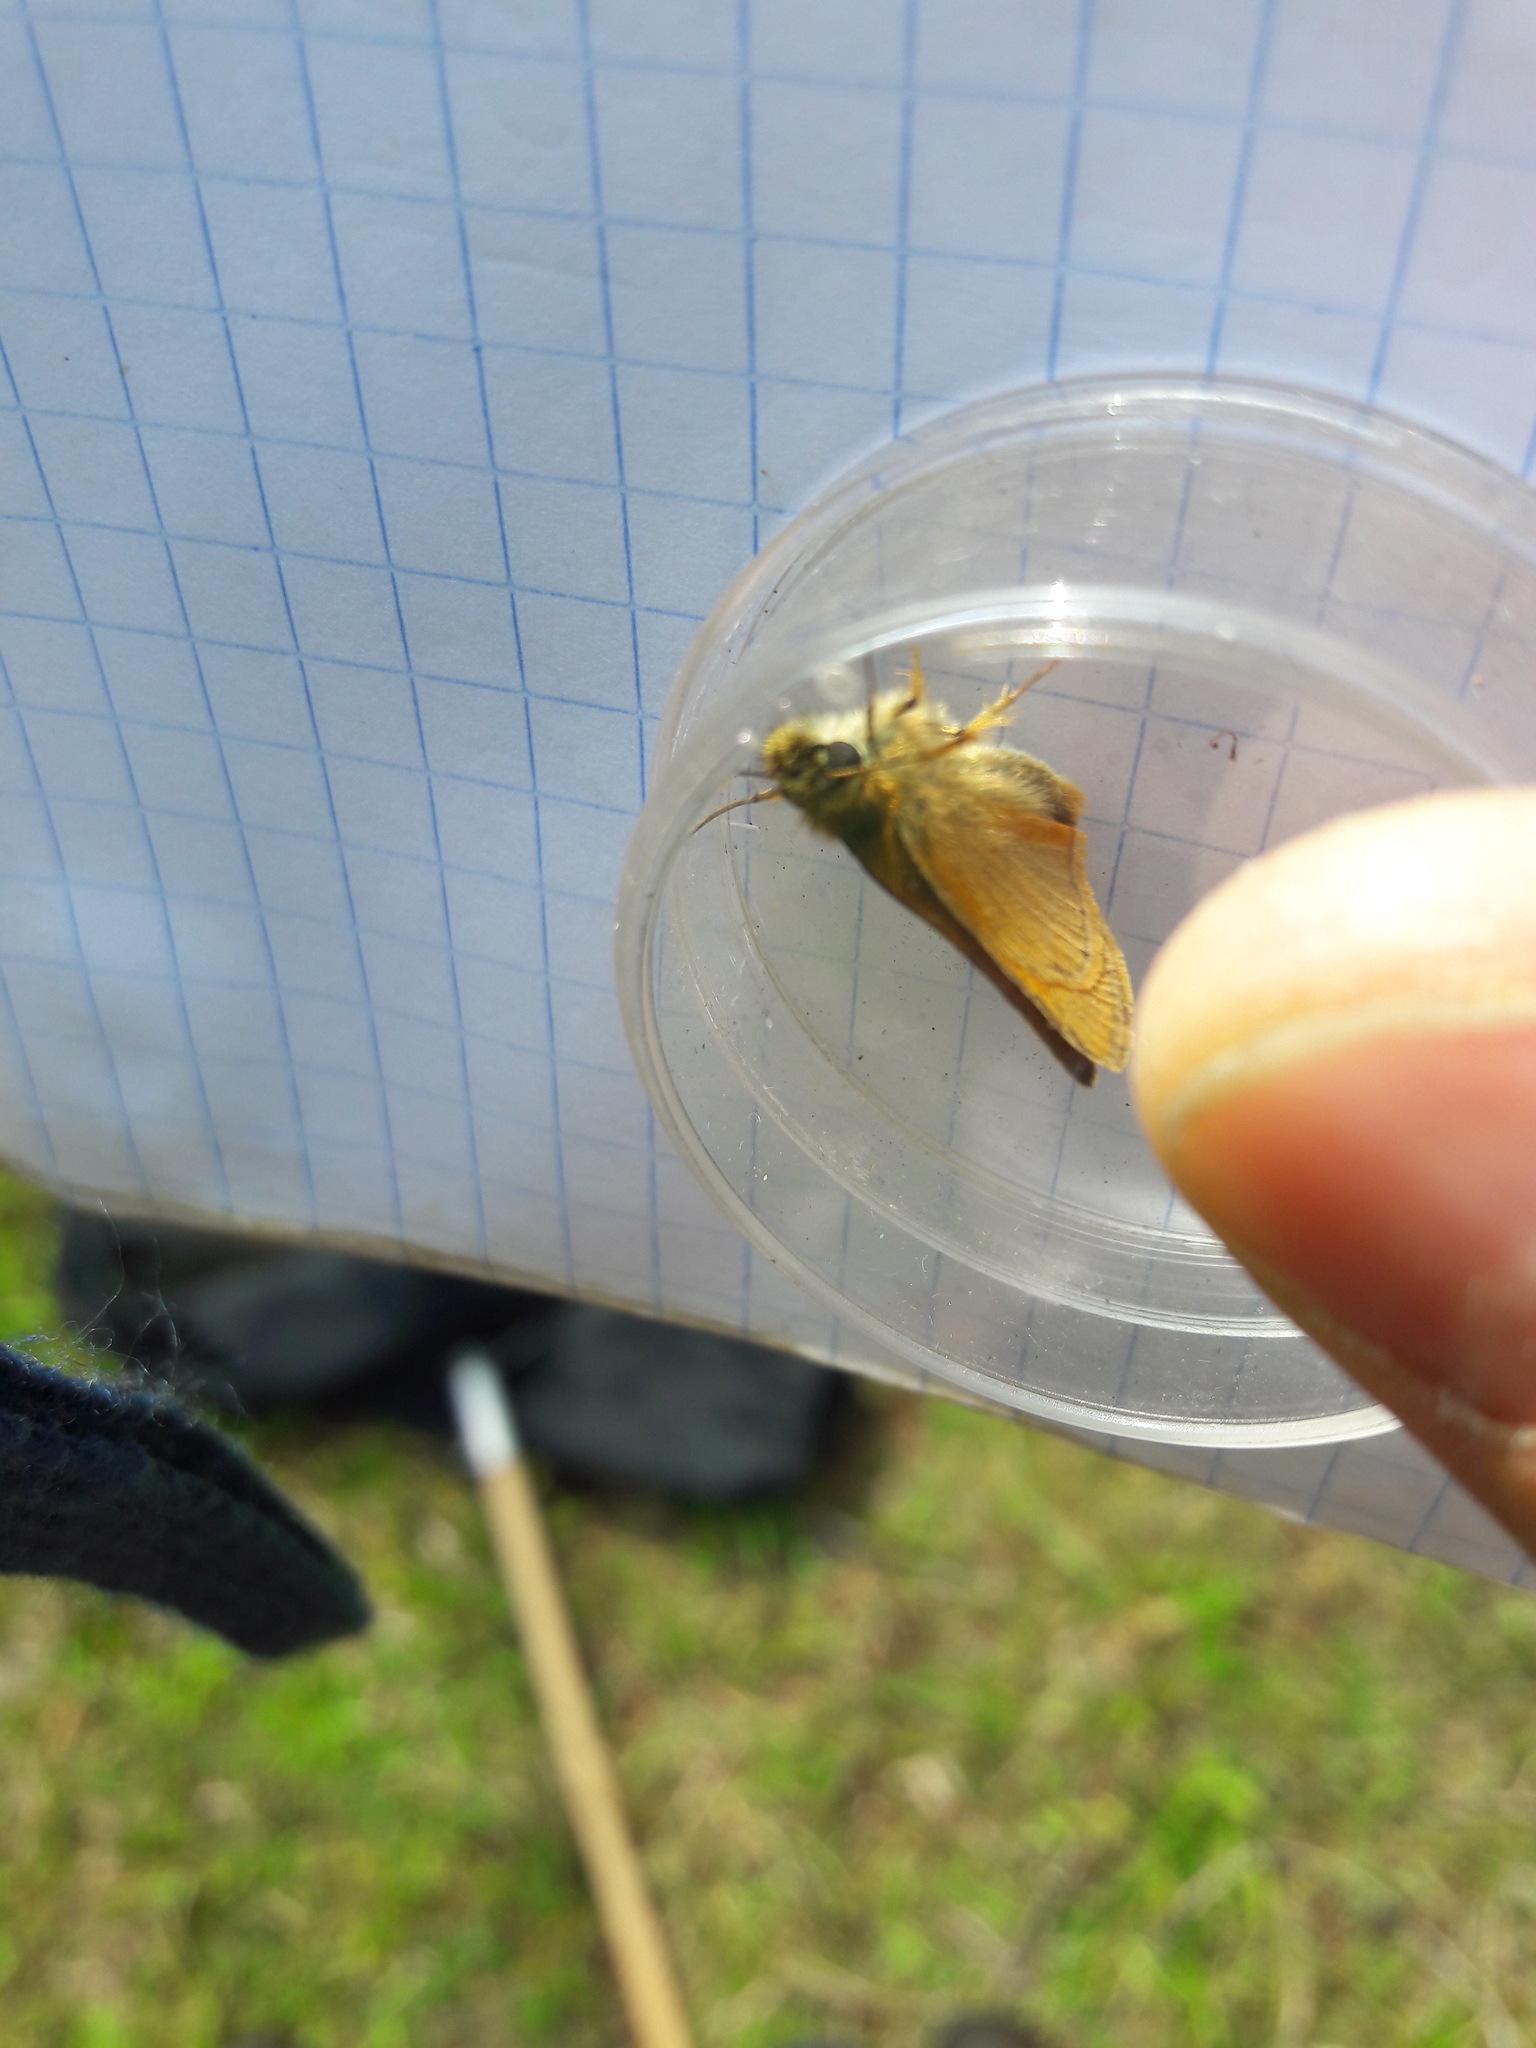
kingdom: Animalia
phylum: Arthropoda
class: Insecta
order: Lepidoptera
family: Hesperiidae
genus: Thymelicus
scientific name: Thymelicus sylvestris
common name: Small skipper
